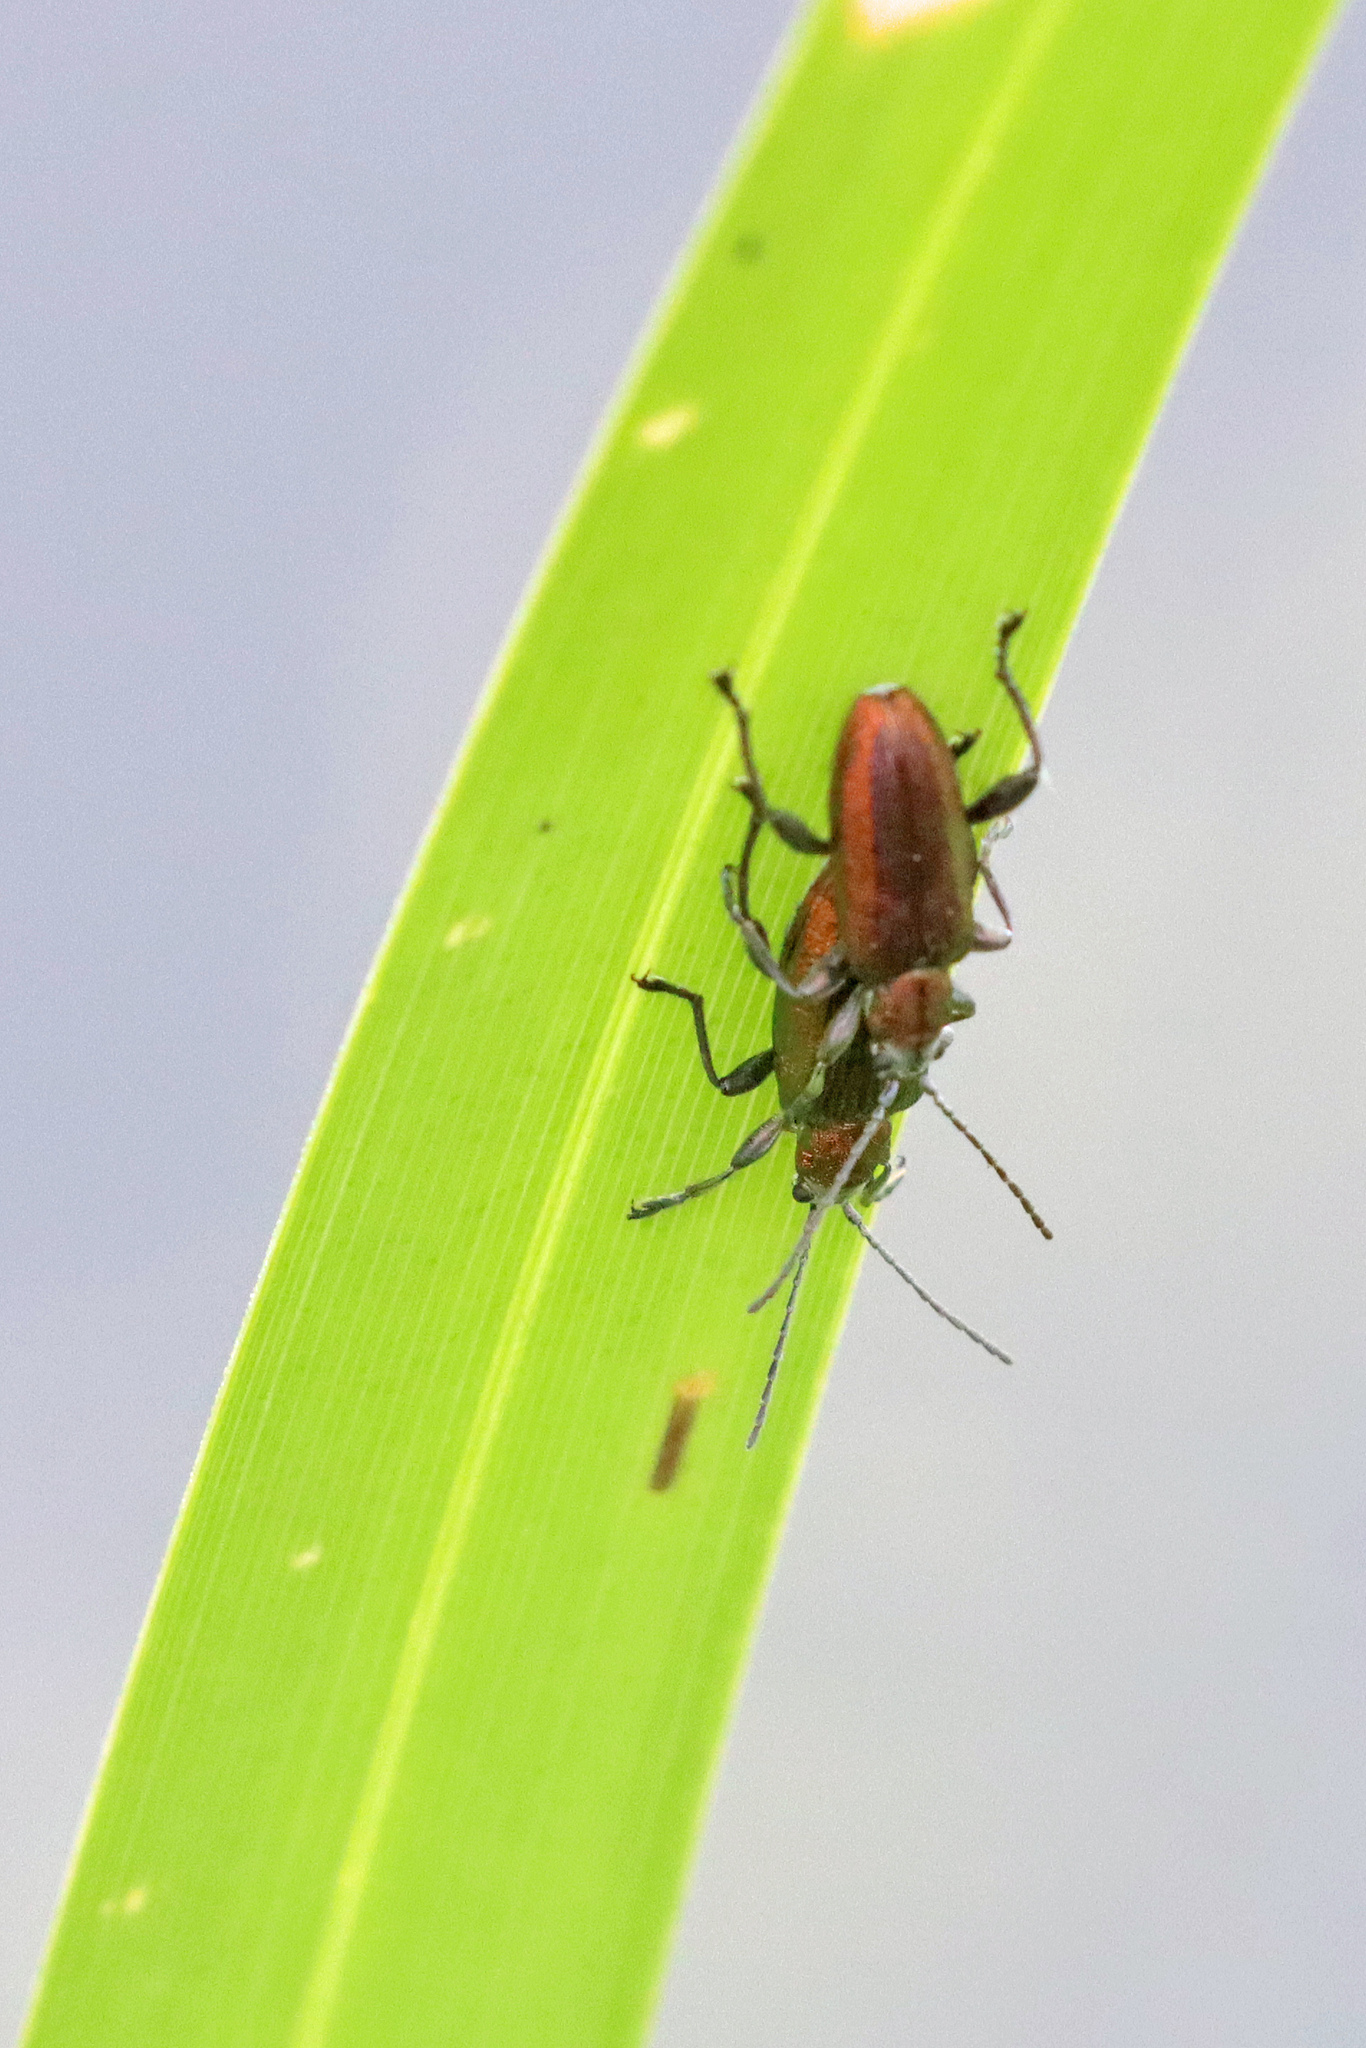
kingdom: Animalia
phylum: Arthropoda
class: Insecta
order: Coleoptera
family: Chrysomelidae
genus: Donacia
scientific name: Donacia semicuprea
